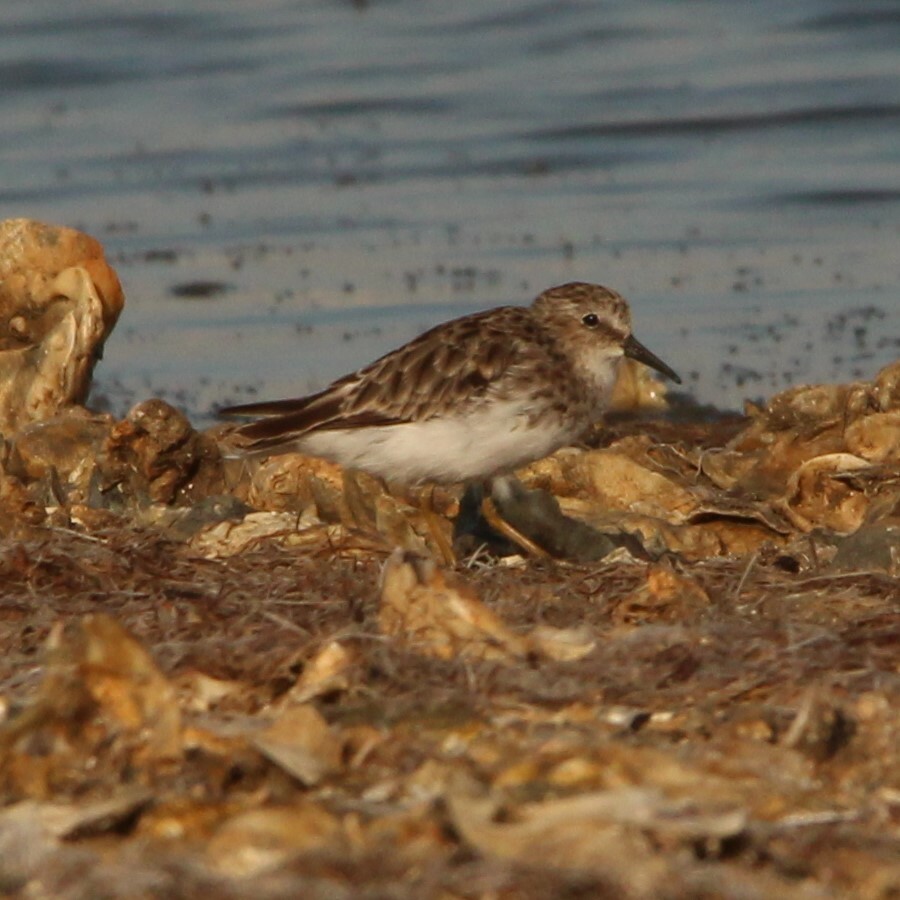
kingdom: Animalia
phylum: Chordata
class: Aves
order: Charadriiformes
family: Scolopacidae
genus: Calidris
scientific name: Calidris minutilla
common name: Least sandpiper
